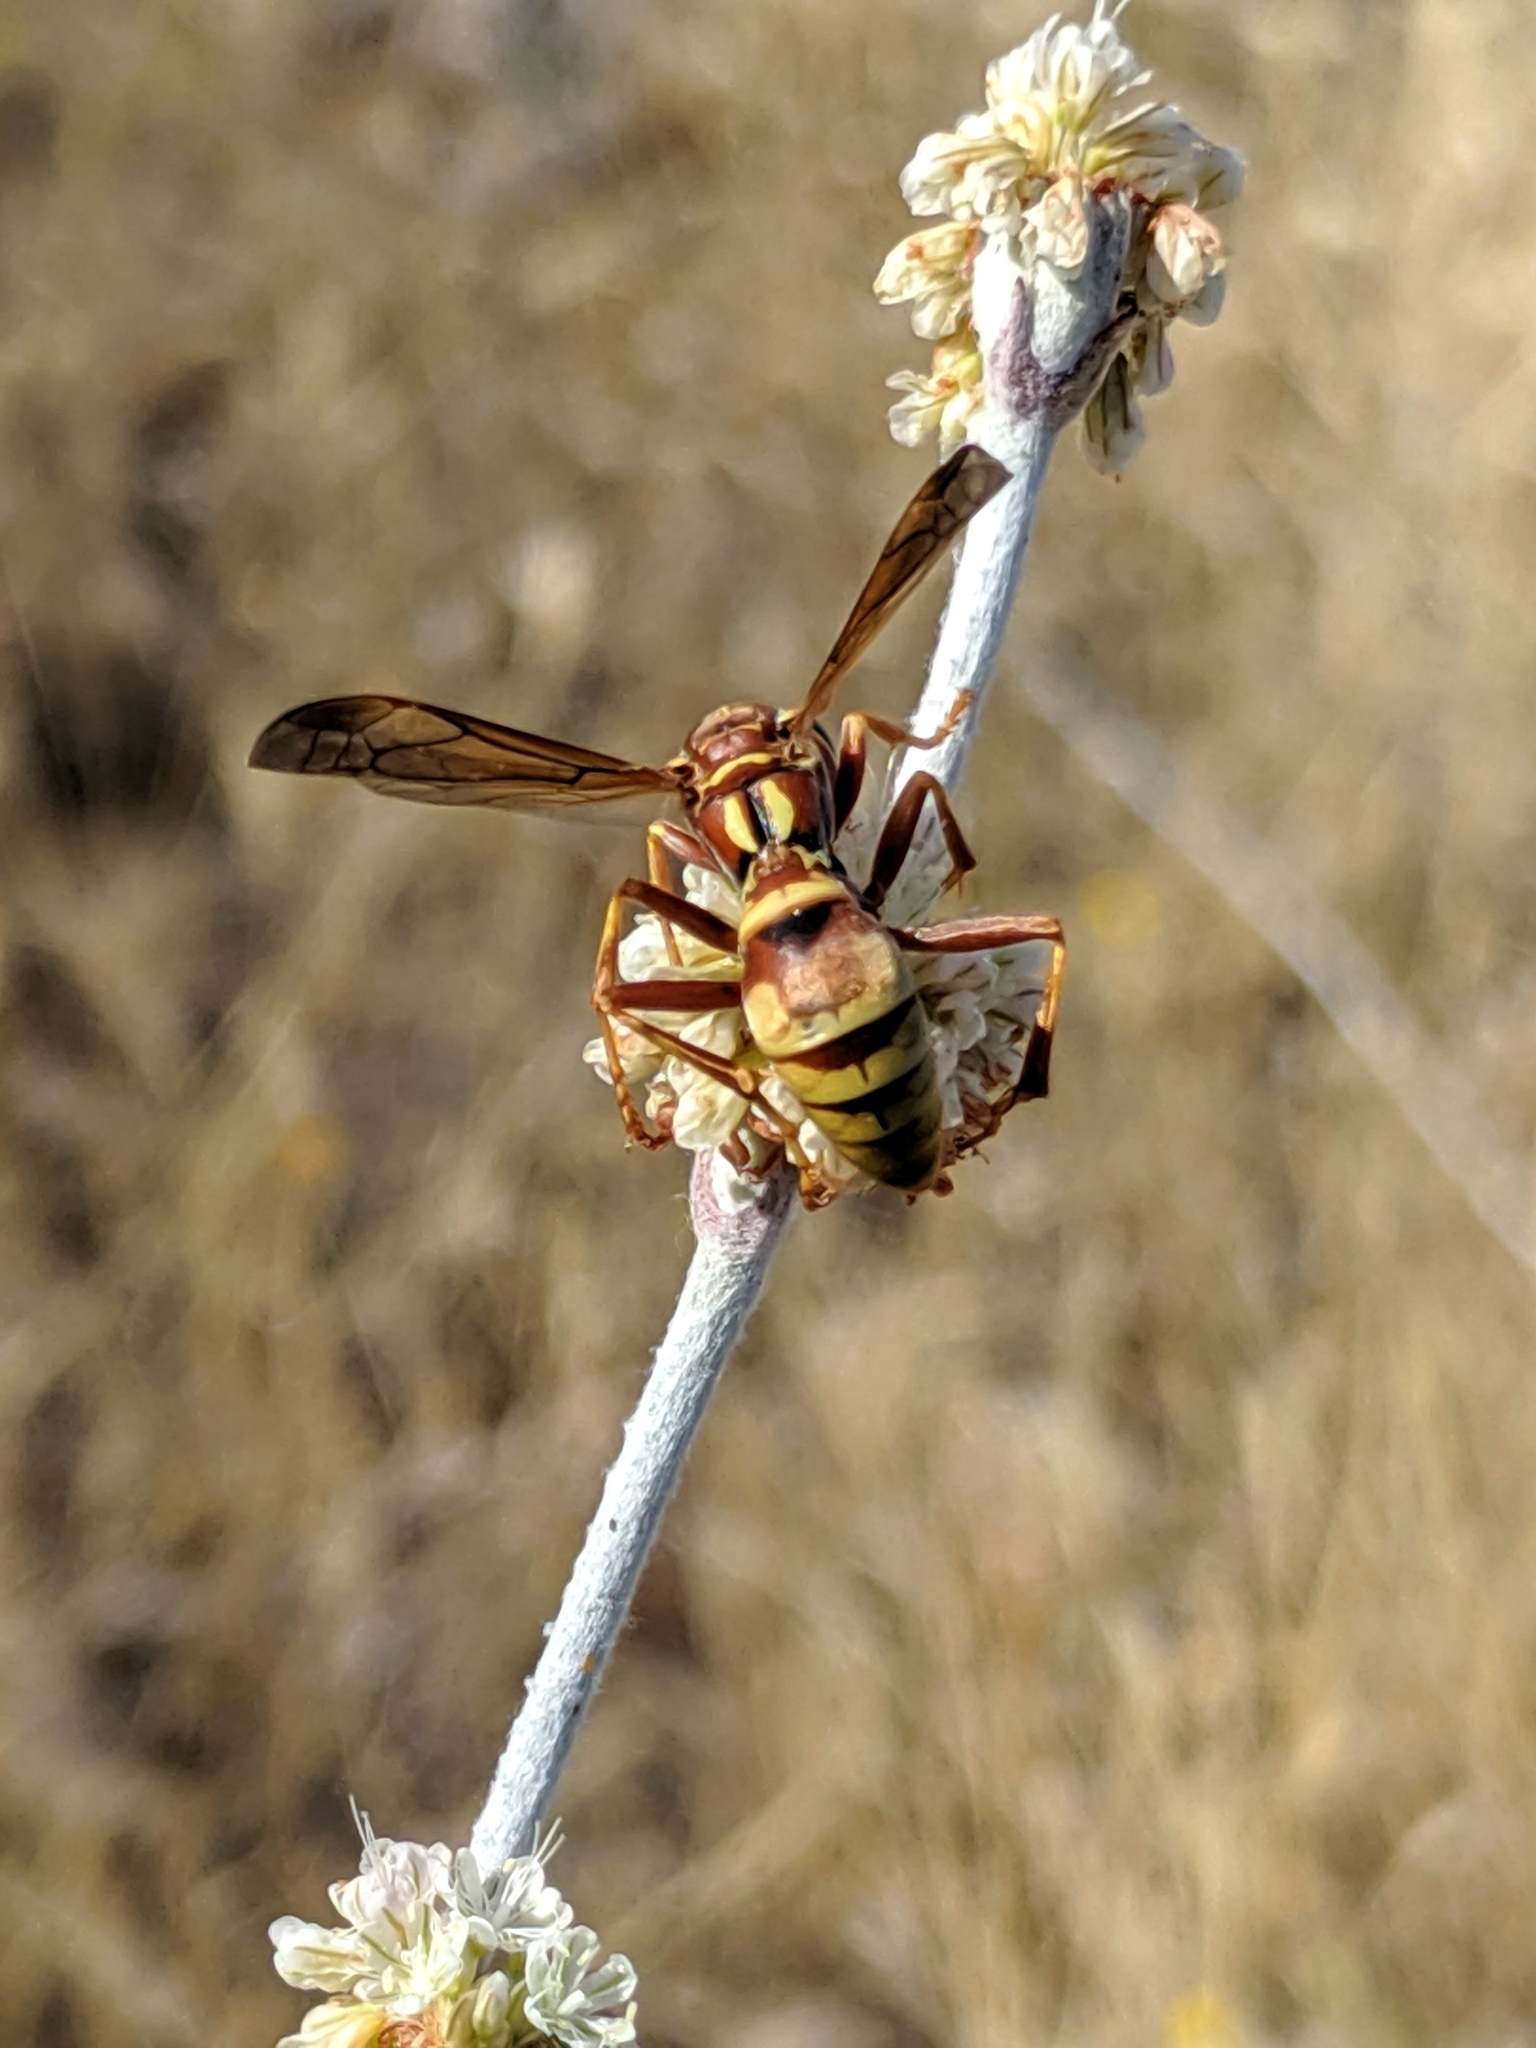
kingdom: Animalia
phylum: Arthropoda
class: Insecta
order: Hymenoptera
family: Eumenidae
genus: Polistes
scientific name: Polistes dorsalis
